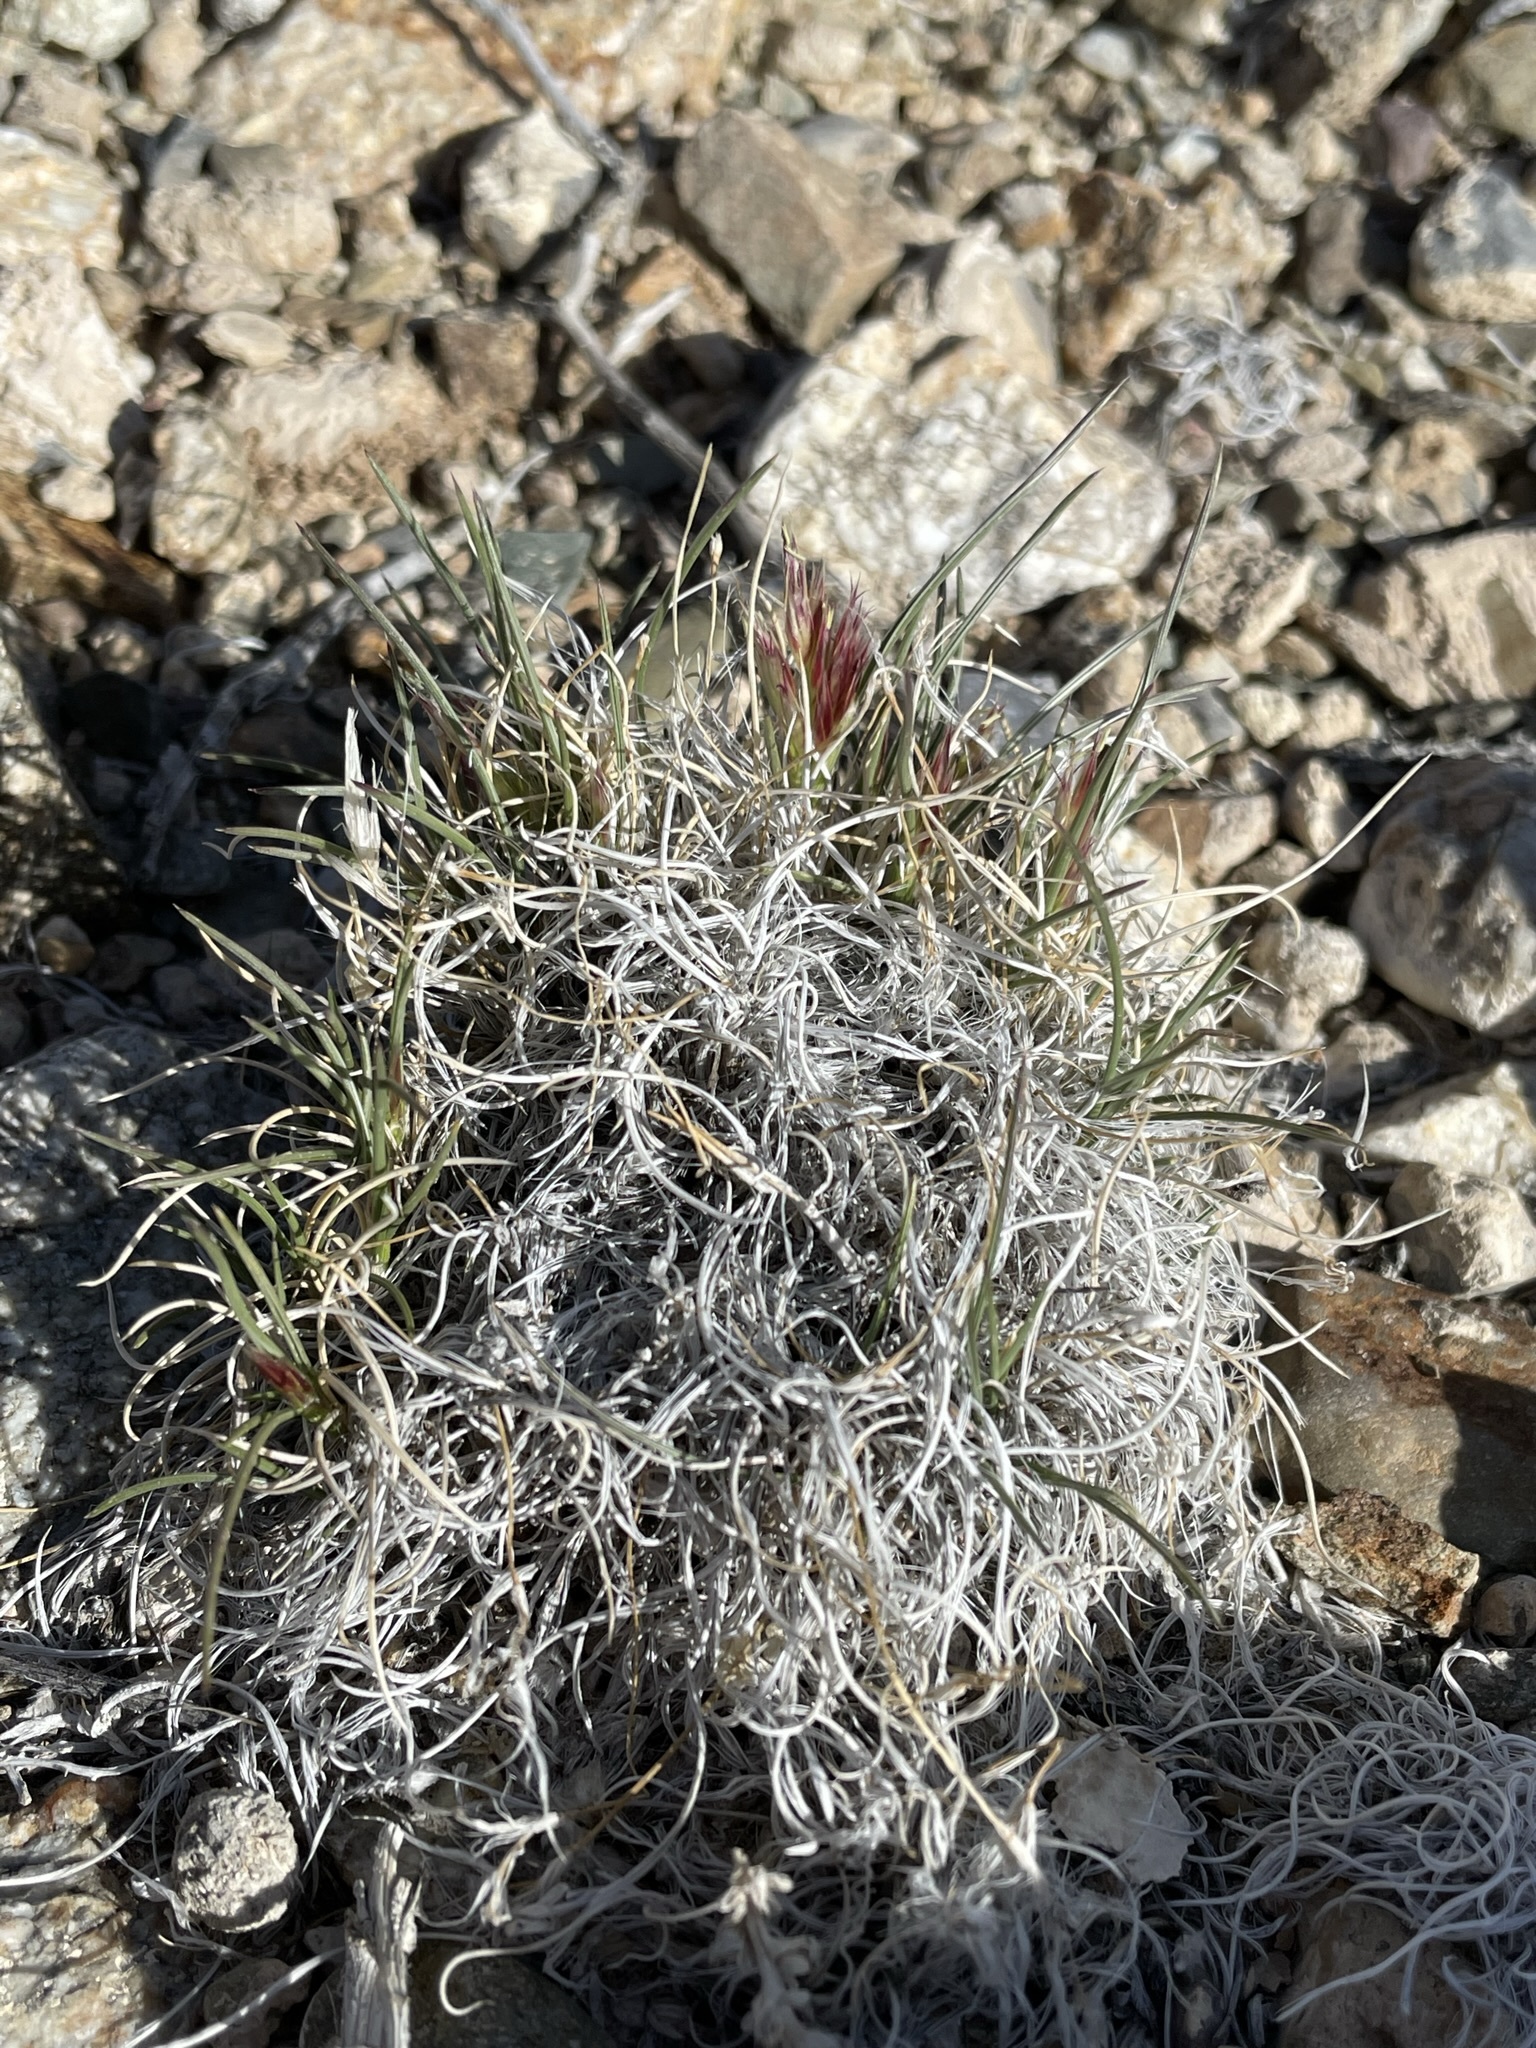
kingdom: Plantae
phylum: Tracheophyta
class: Liliopsida
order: Poales
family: Poaceae
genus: Blepharidachne
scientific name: Blepharidachne kingii
